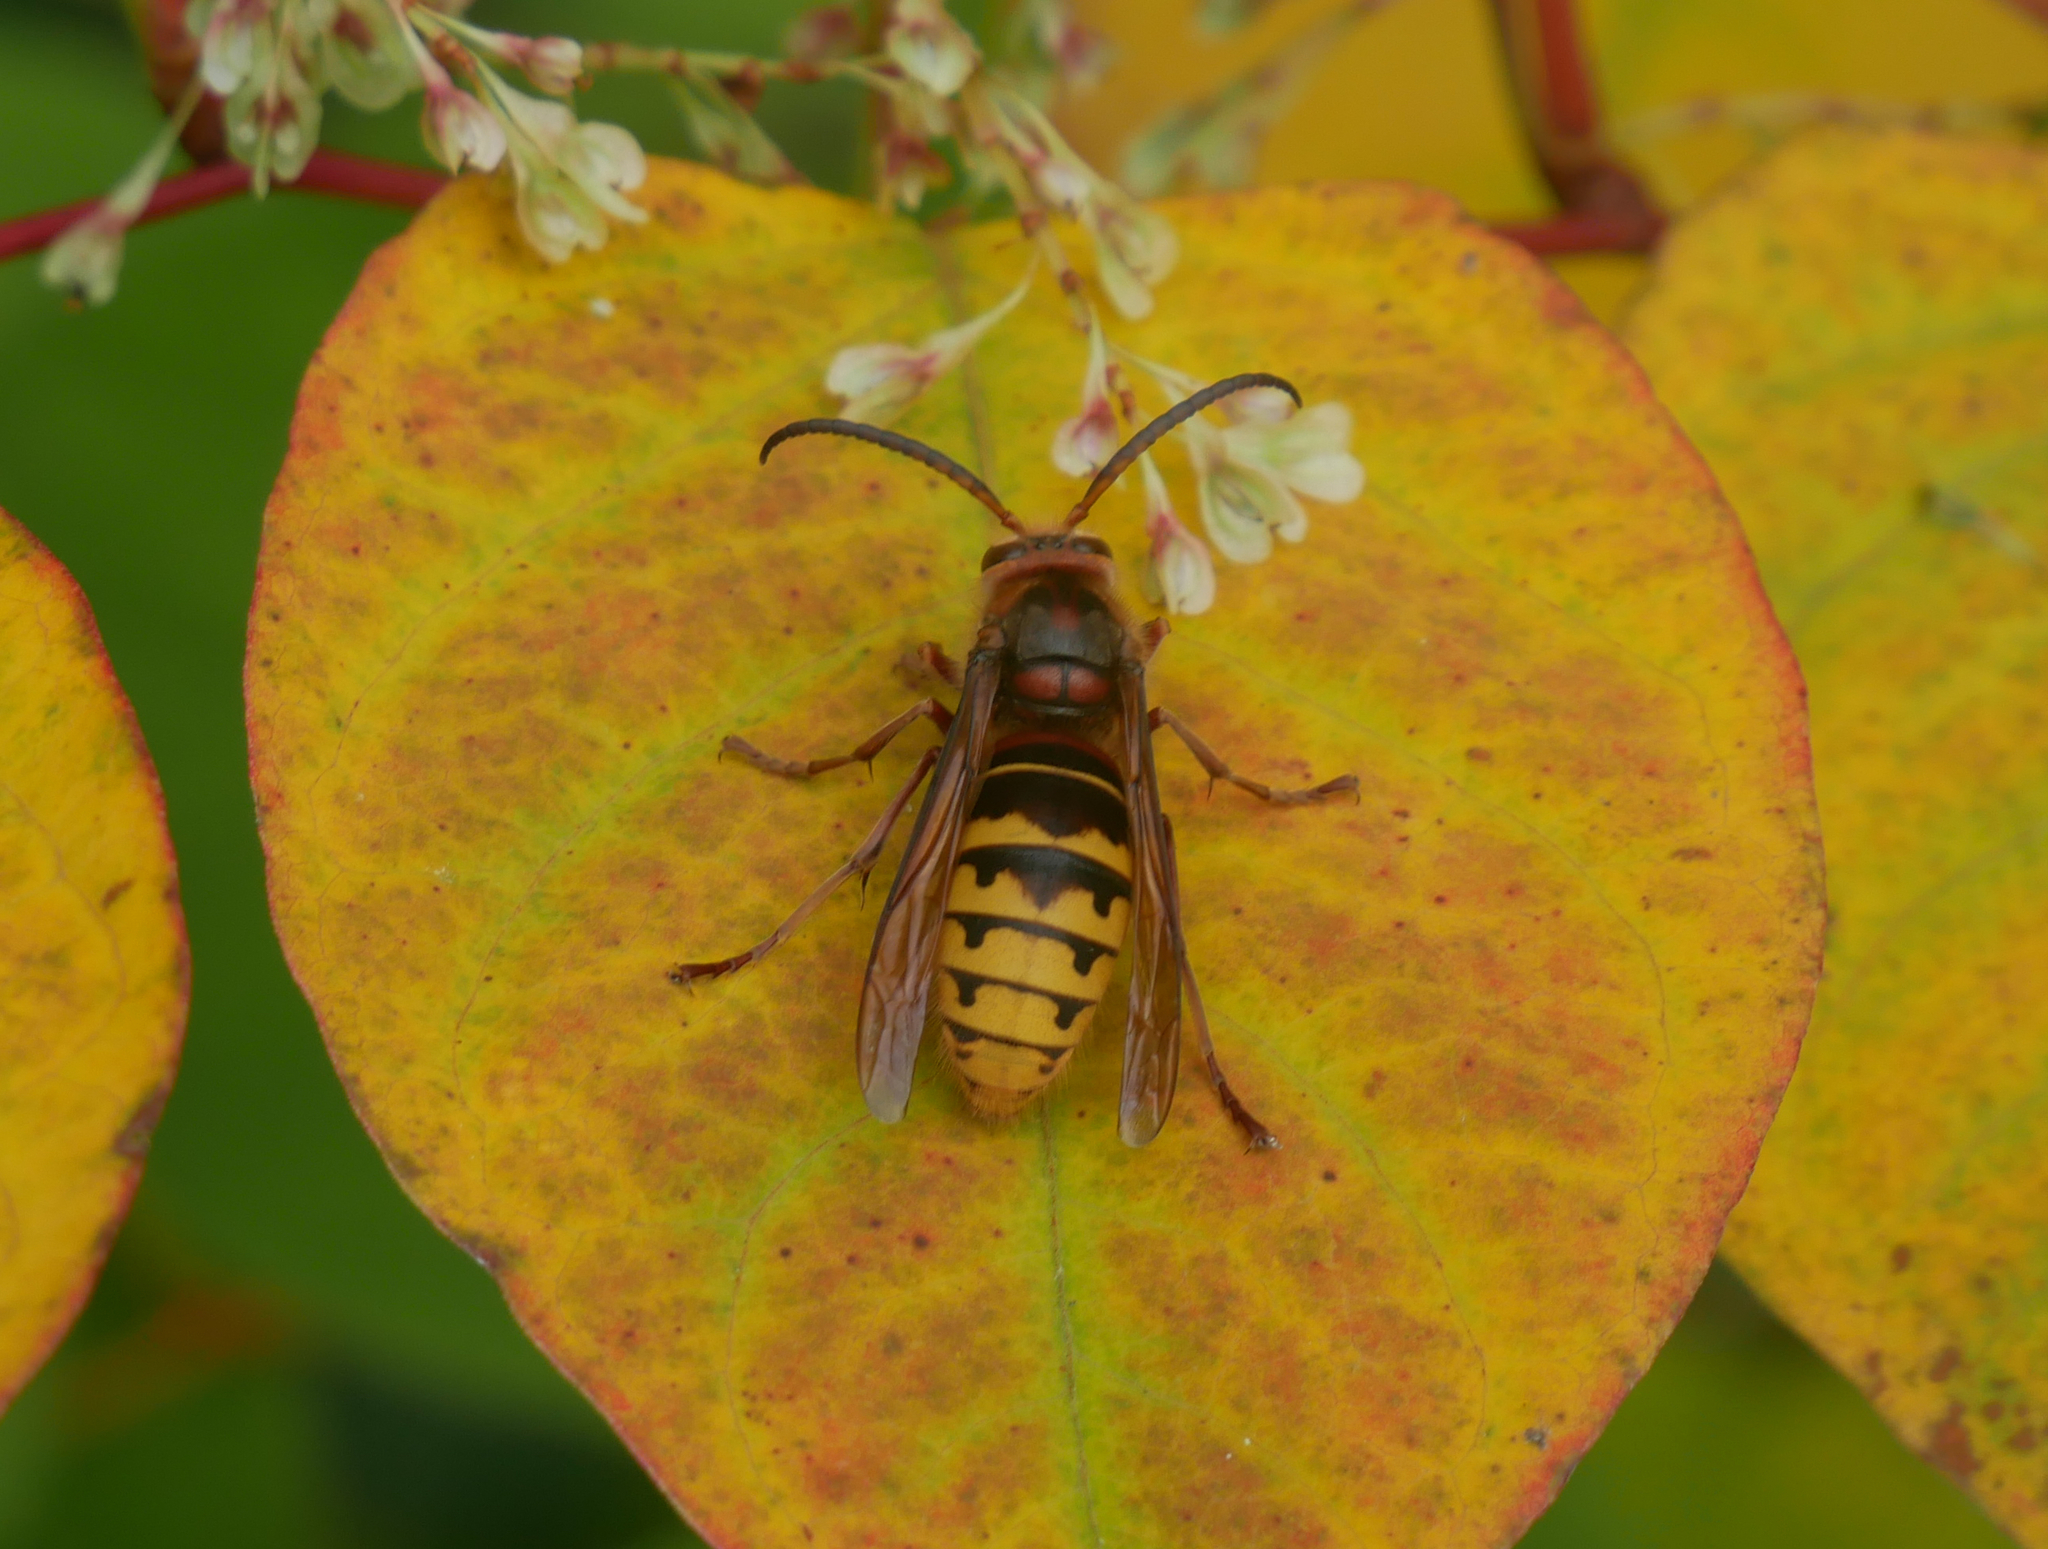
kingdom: Animalia
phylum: Arthropoda
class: Insecta
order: Hymenoptera
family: Vespidae
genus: Vespa
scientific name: Vespa crabro
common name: Hornet
